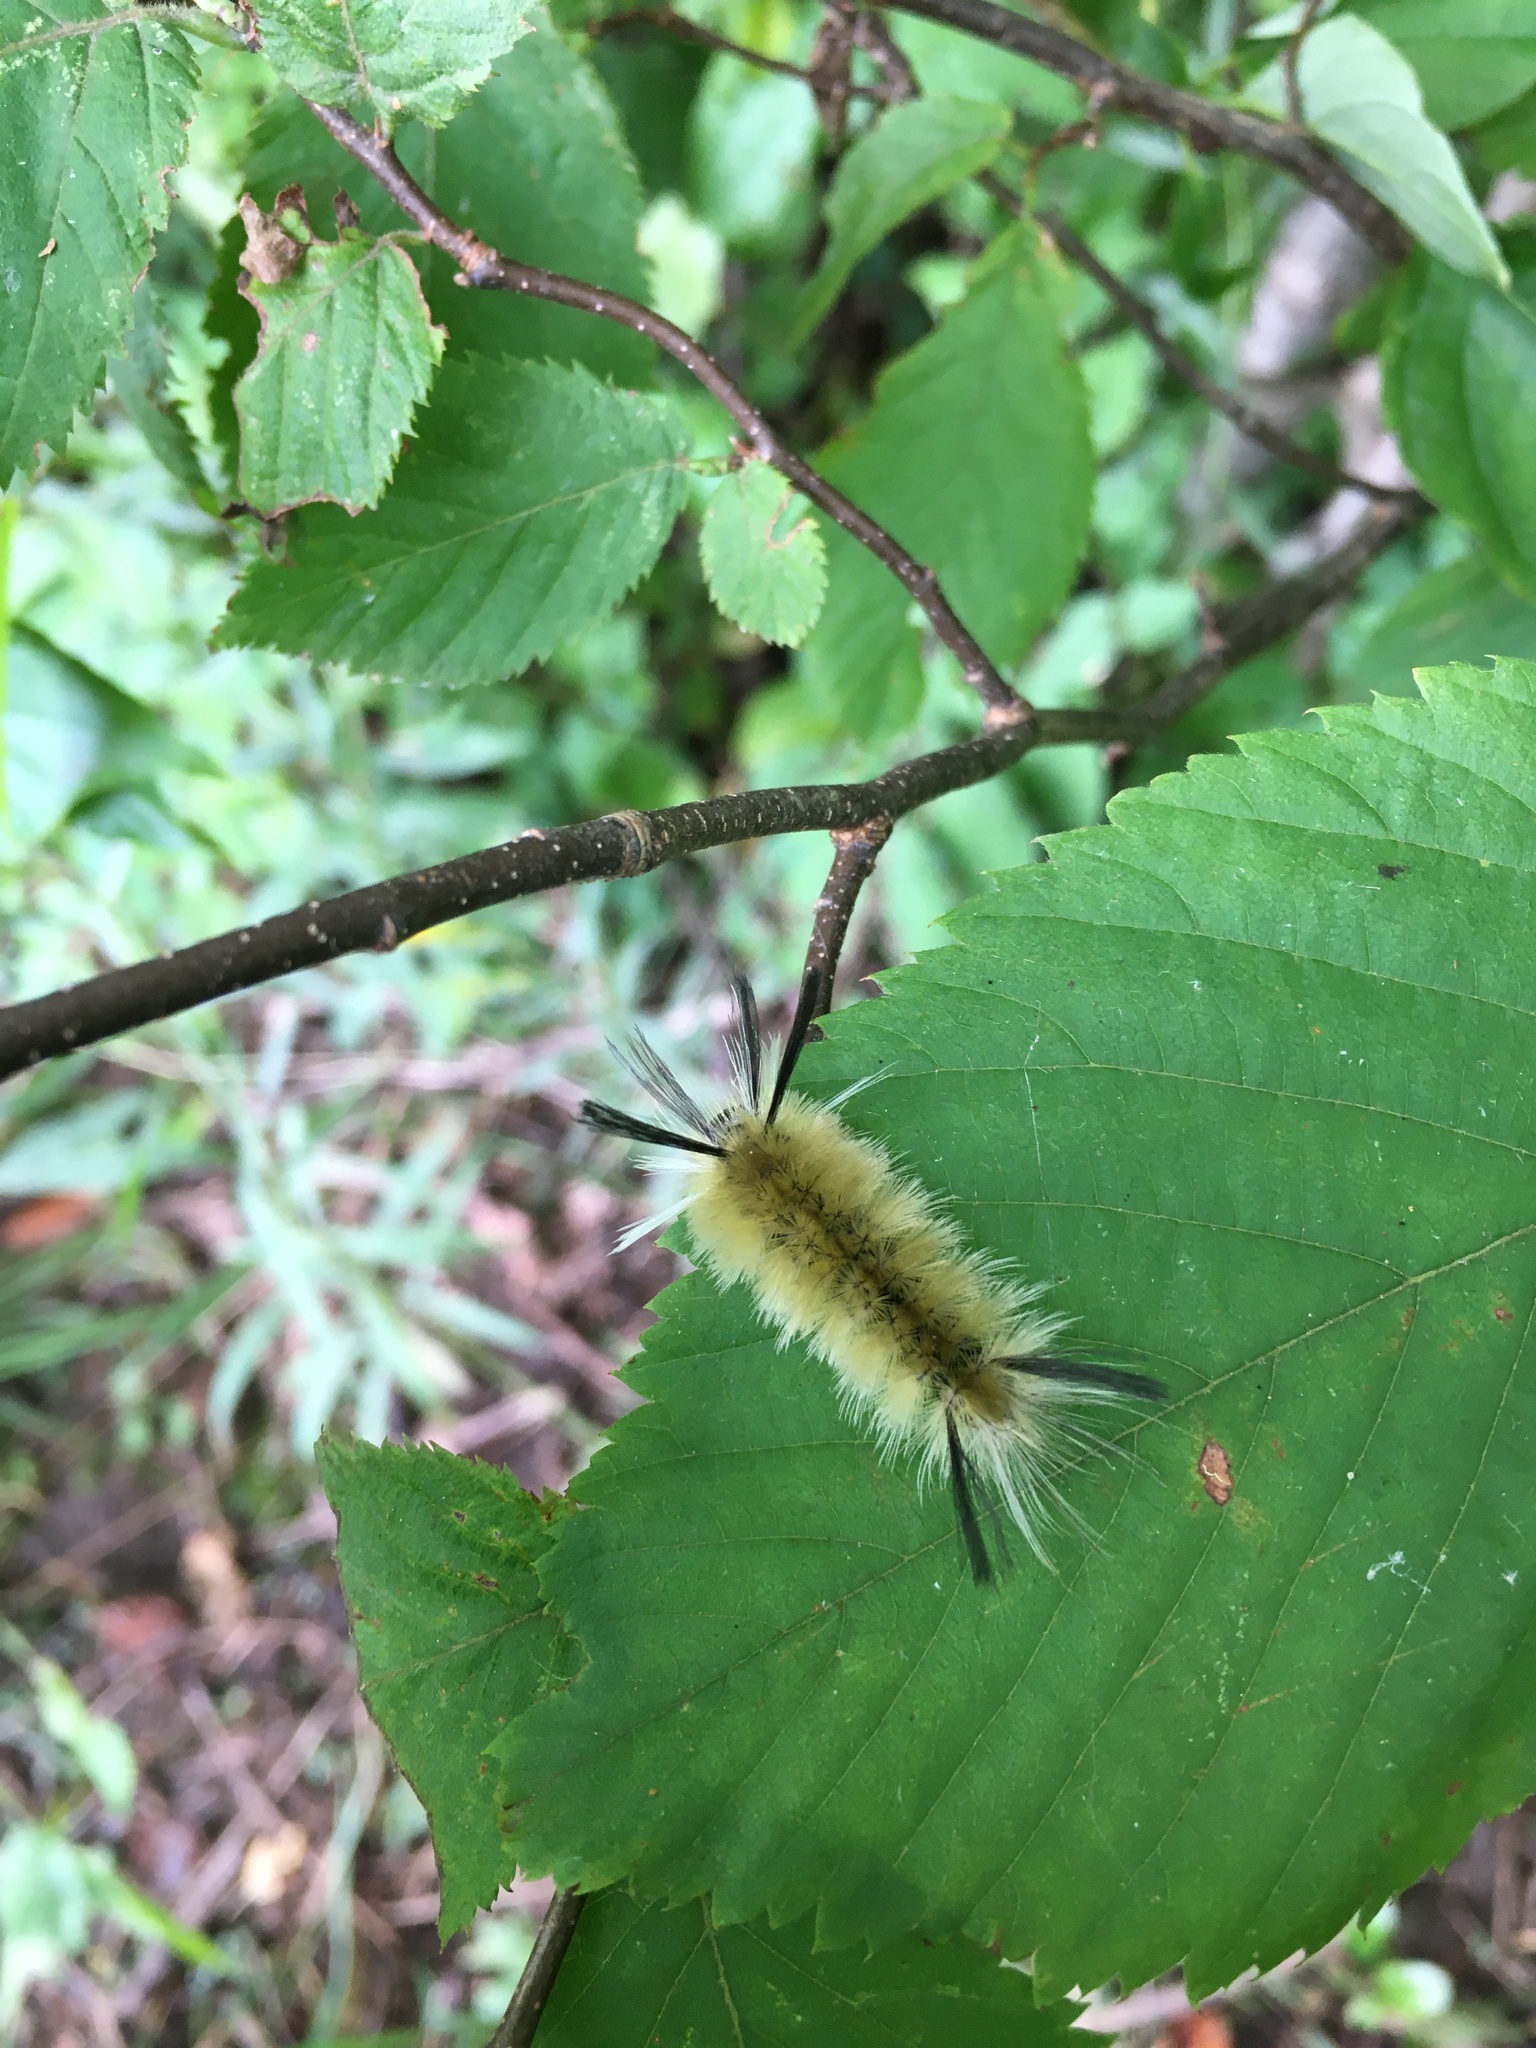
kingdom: Animalia
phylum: Arthropoda
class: Insecta
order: Lepidoptera
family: Erebidae
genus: Halysidota
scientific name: Halysidota tessellaris
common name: Banded tussock moth
